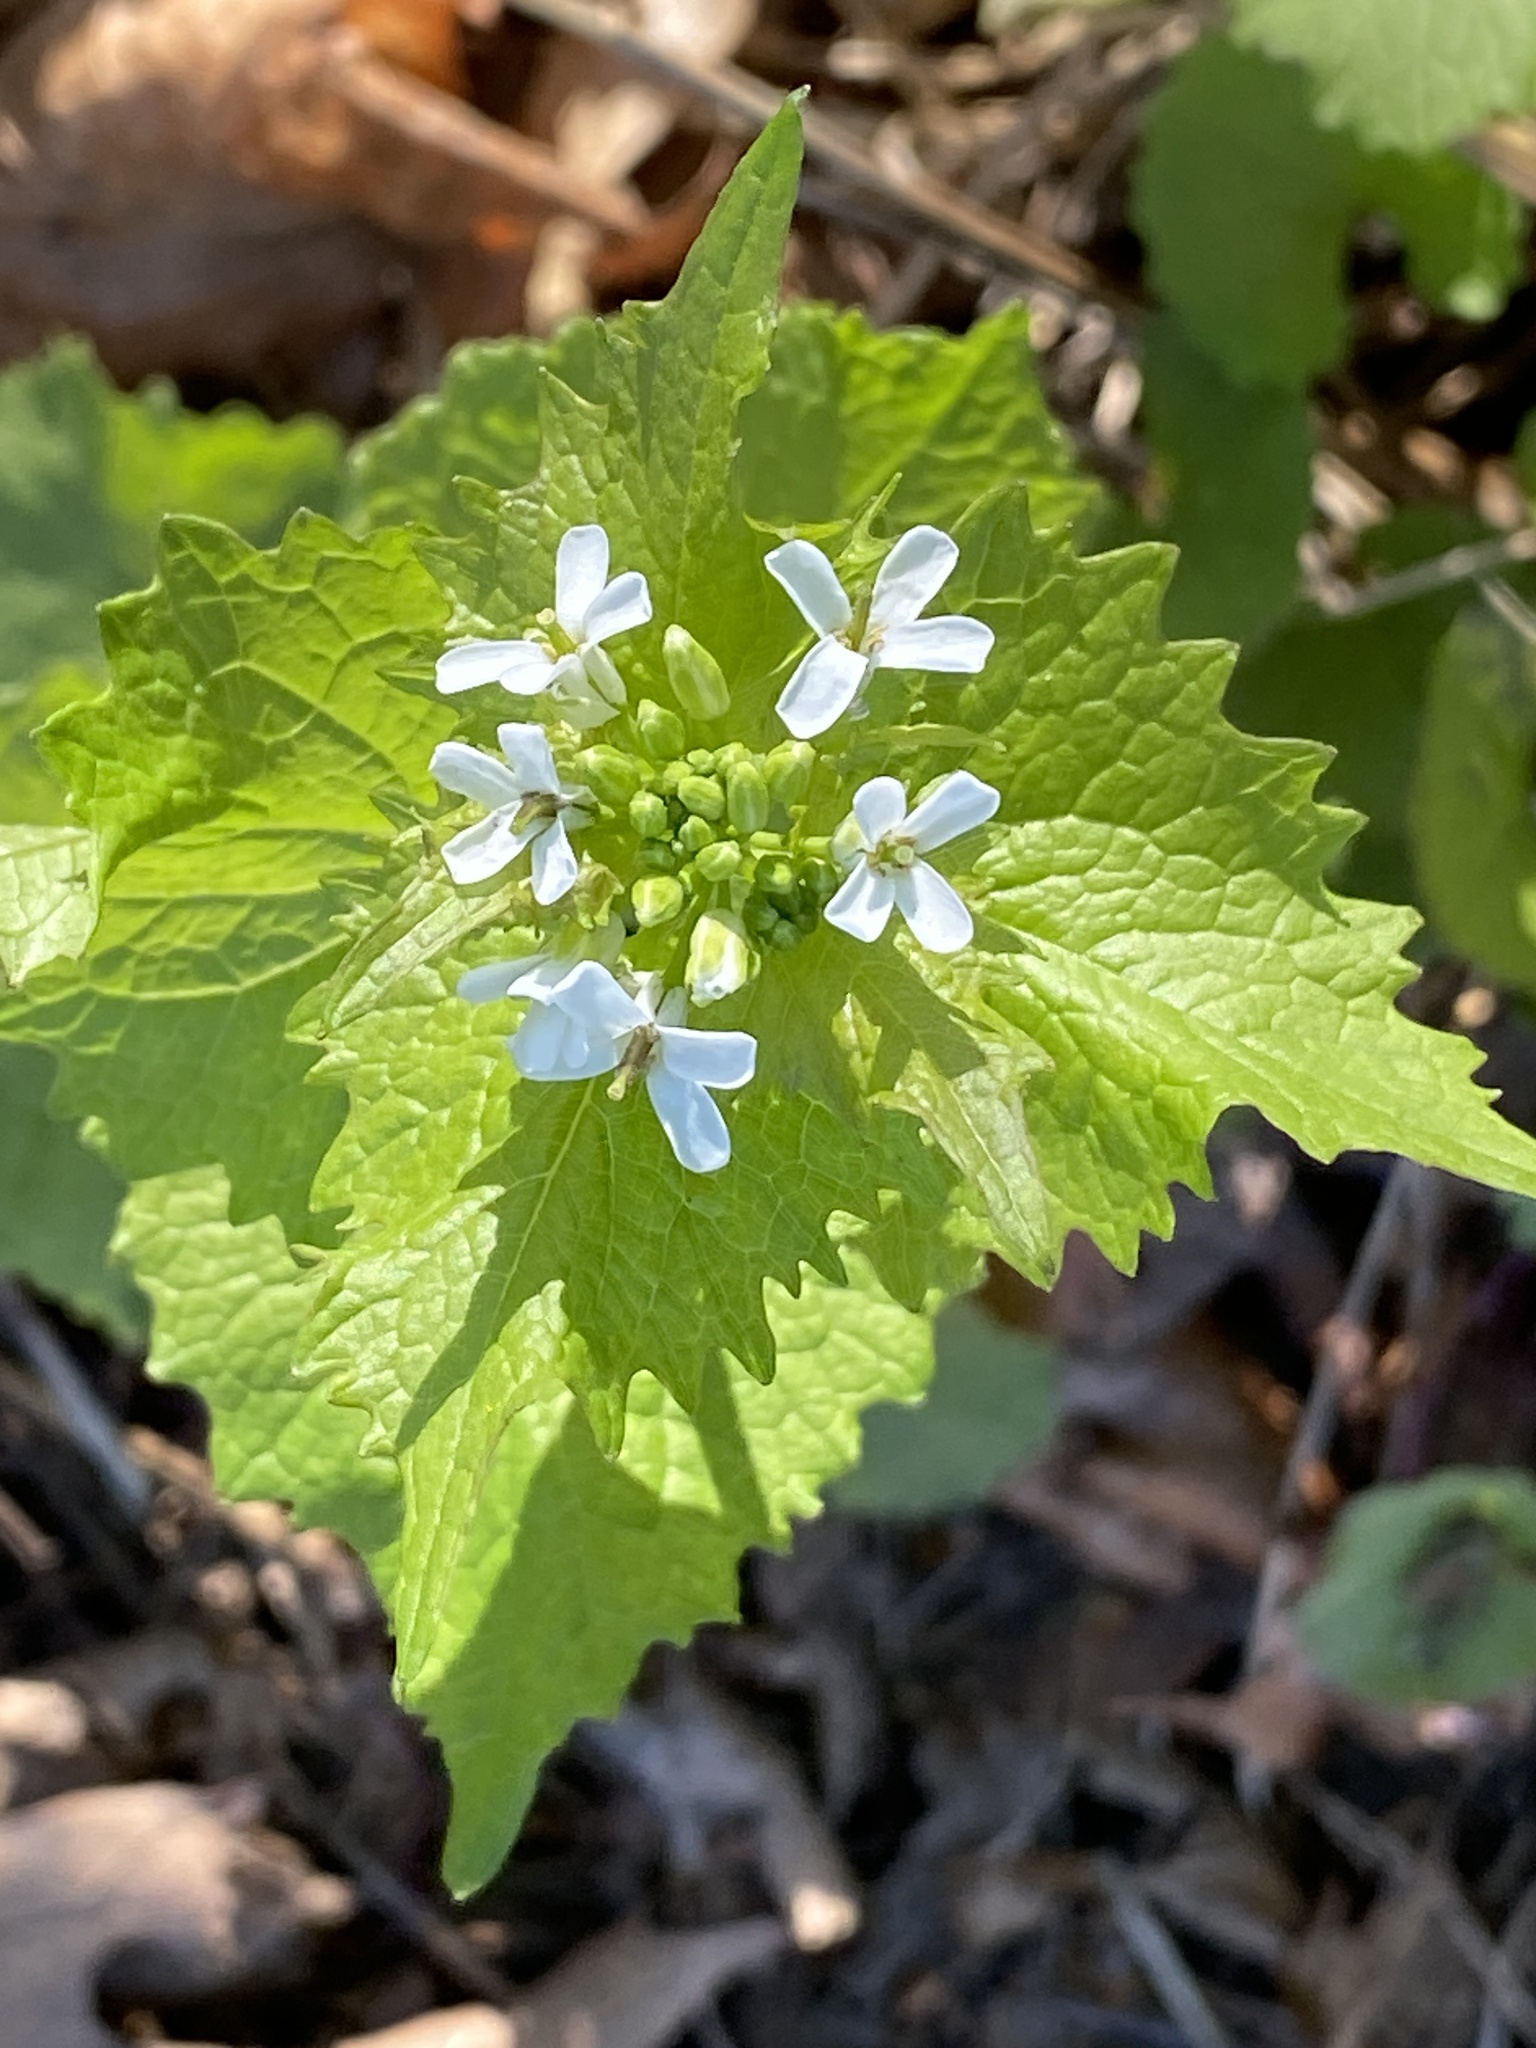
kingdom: Plantae
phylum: Tracheophyta
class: Magnoliopsida
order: Brassicales
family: Brassicaceae
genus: Alliaria
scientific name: Alliaria petiolata
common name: Garlic mustard
